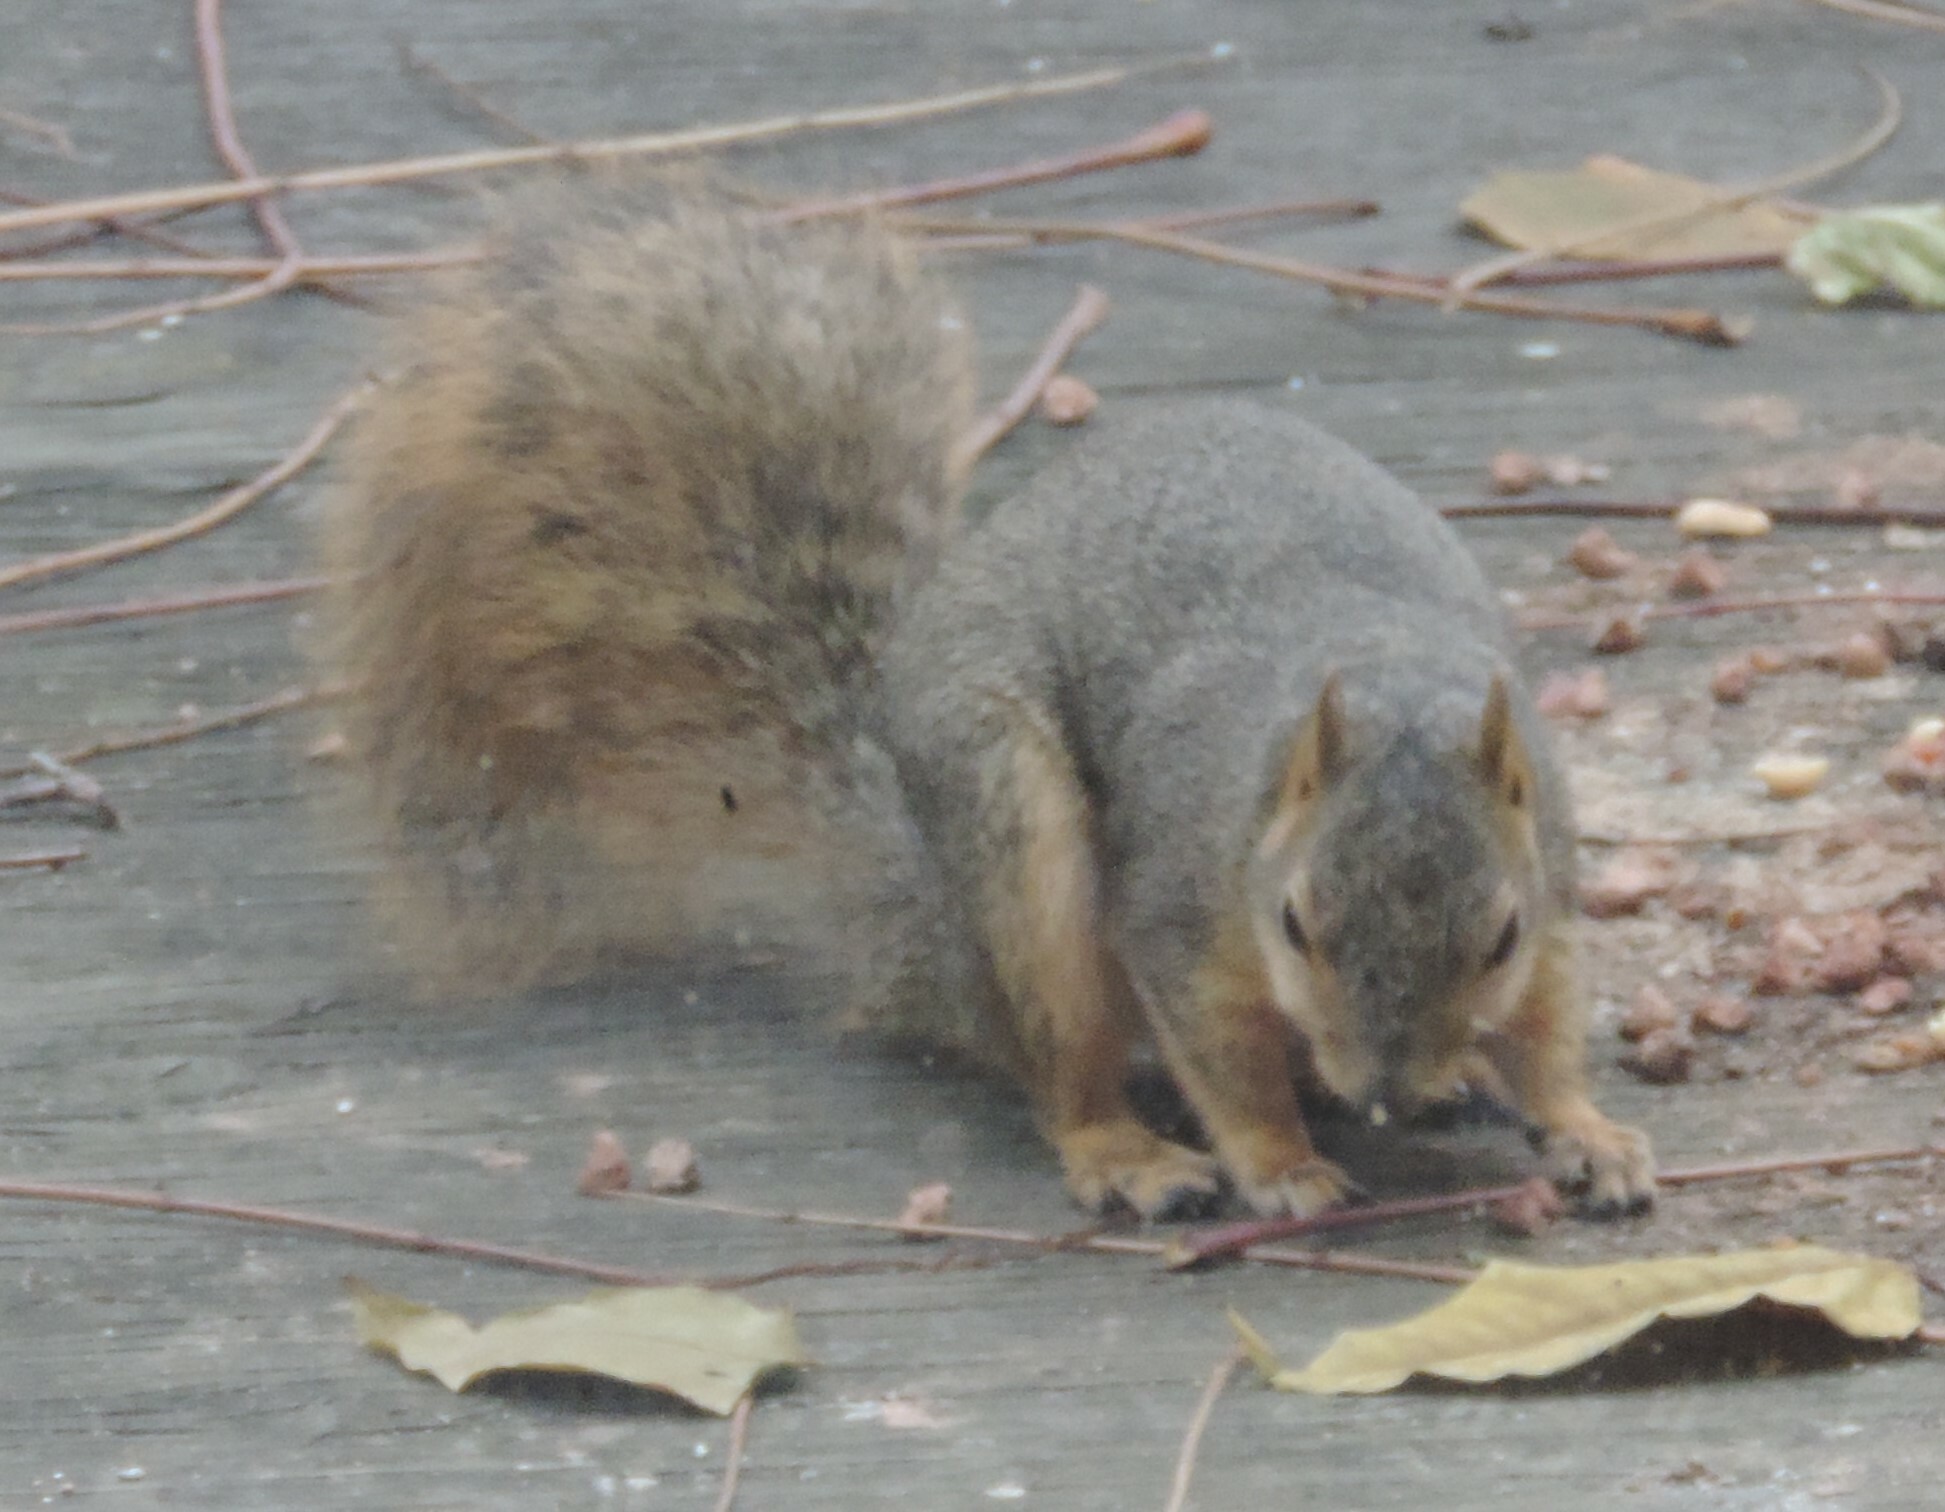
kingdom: Animalia
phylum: Chordata
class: Mammalia
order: Rodentia
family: Sciuridae
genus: Sciurus
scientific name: Sciurus niger
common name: Fox squirrel
